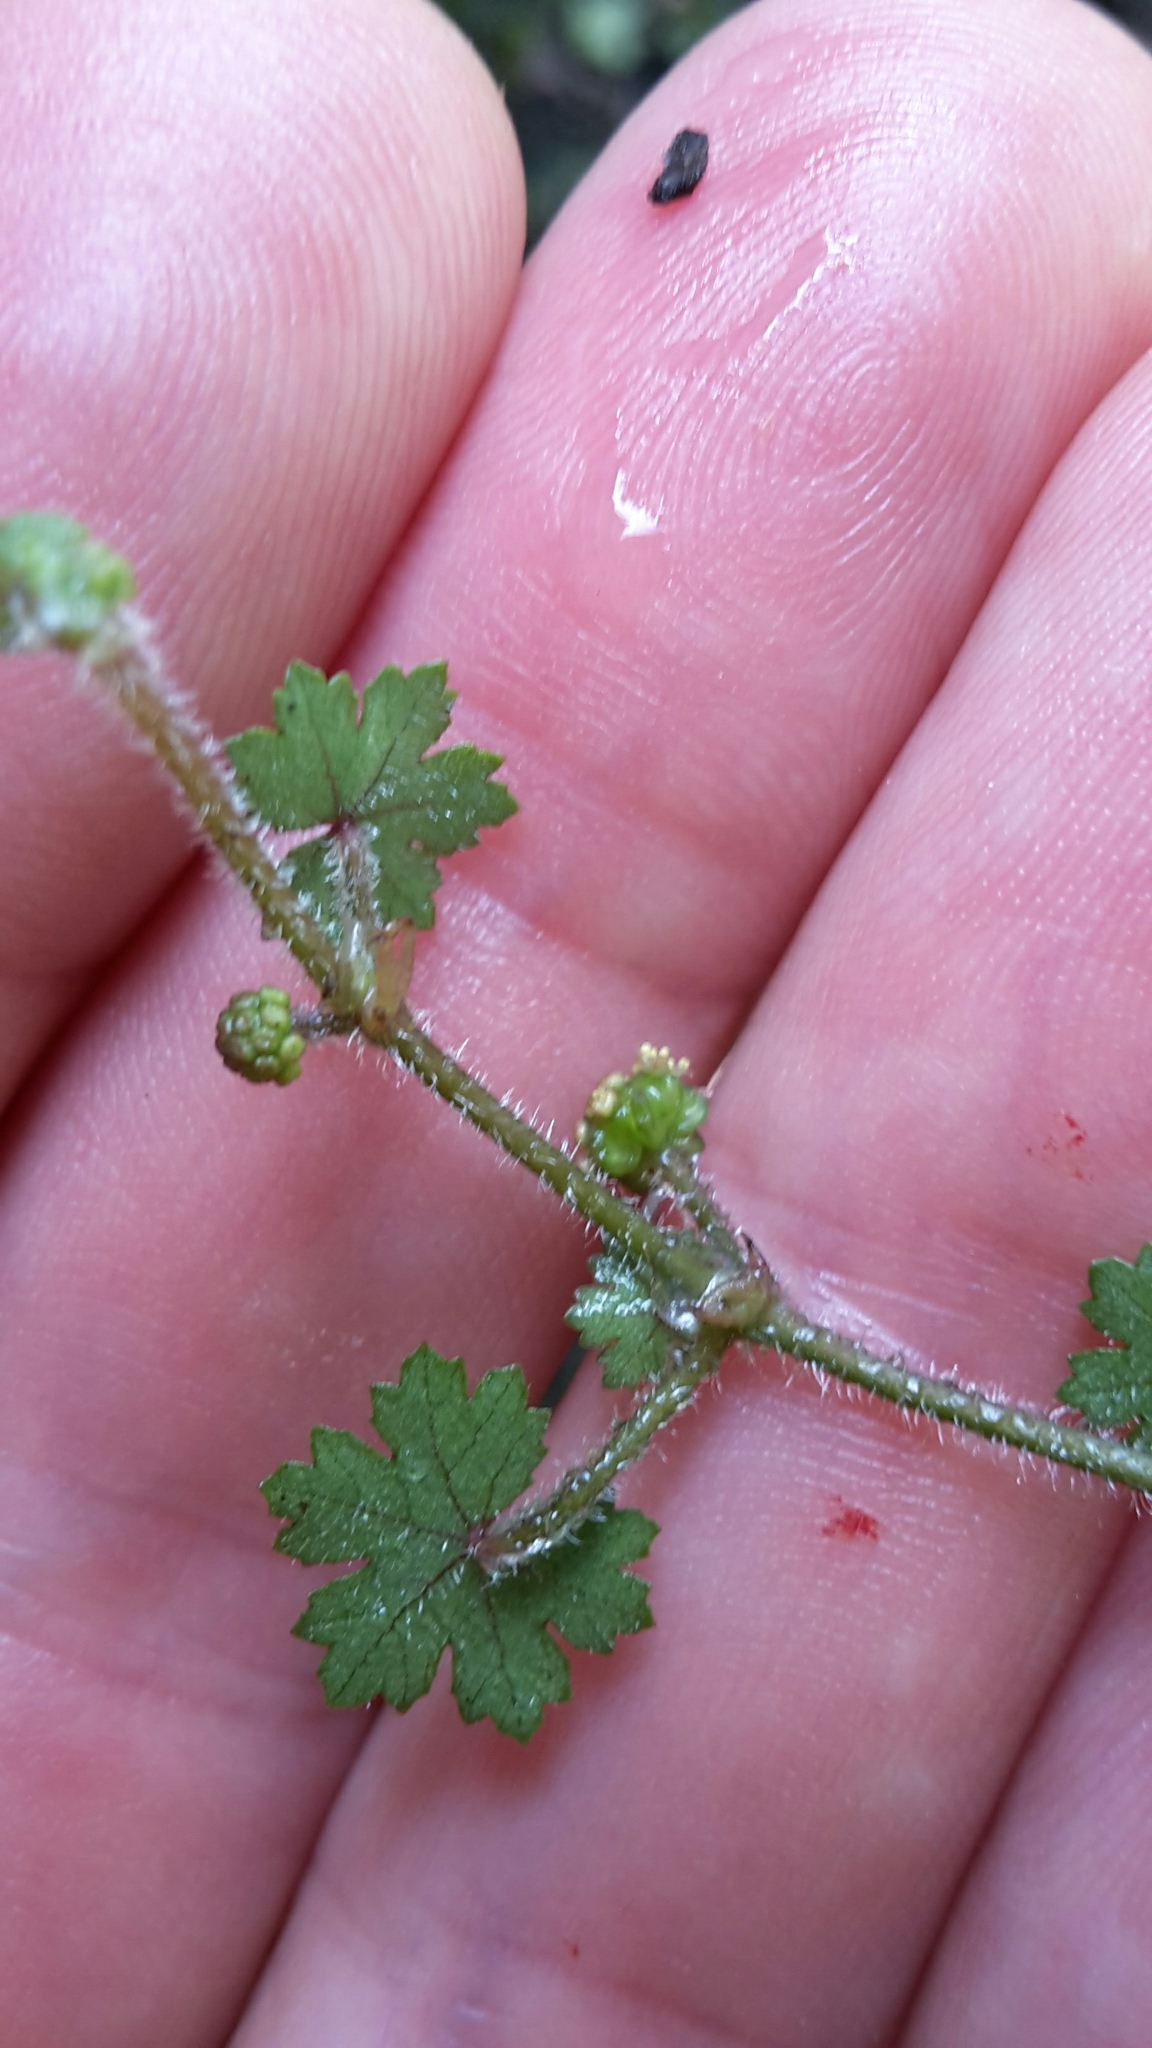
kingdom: Plantae
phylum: Tracheophyta
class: Magnoliopsida
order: Apiales
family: Araliaceae
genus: Hydrocotyle
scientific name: Hydrocotyle moschata
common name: Hairy pennywort
